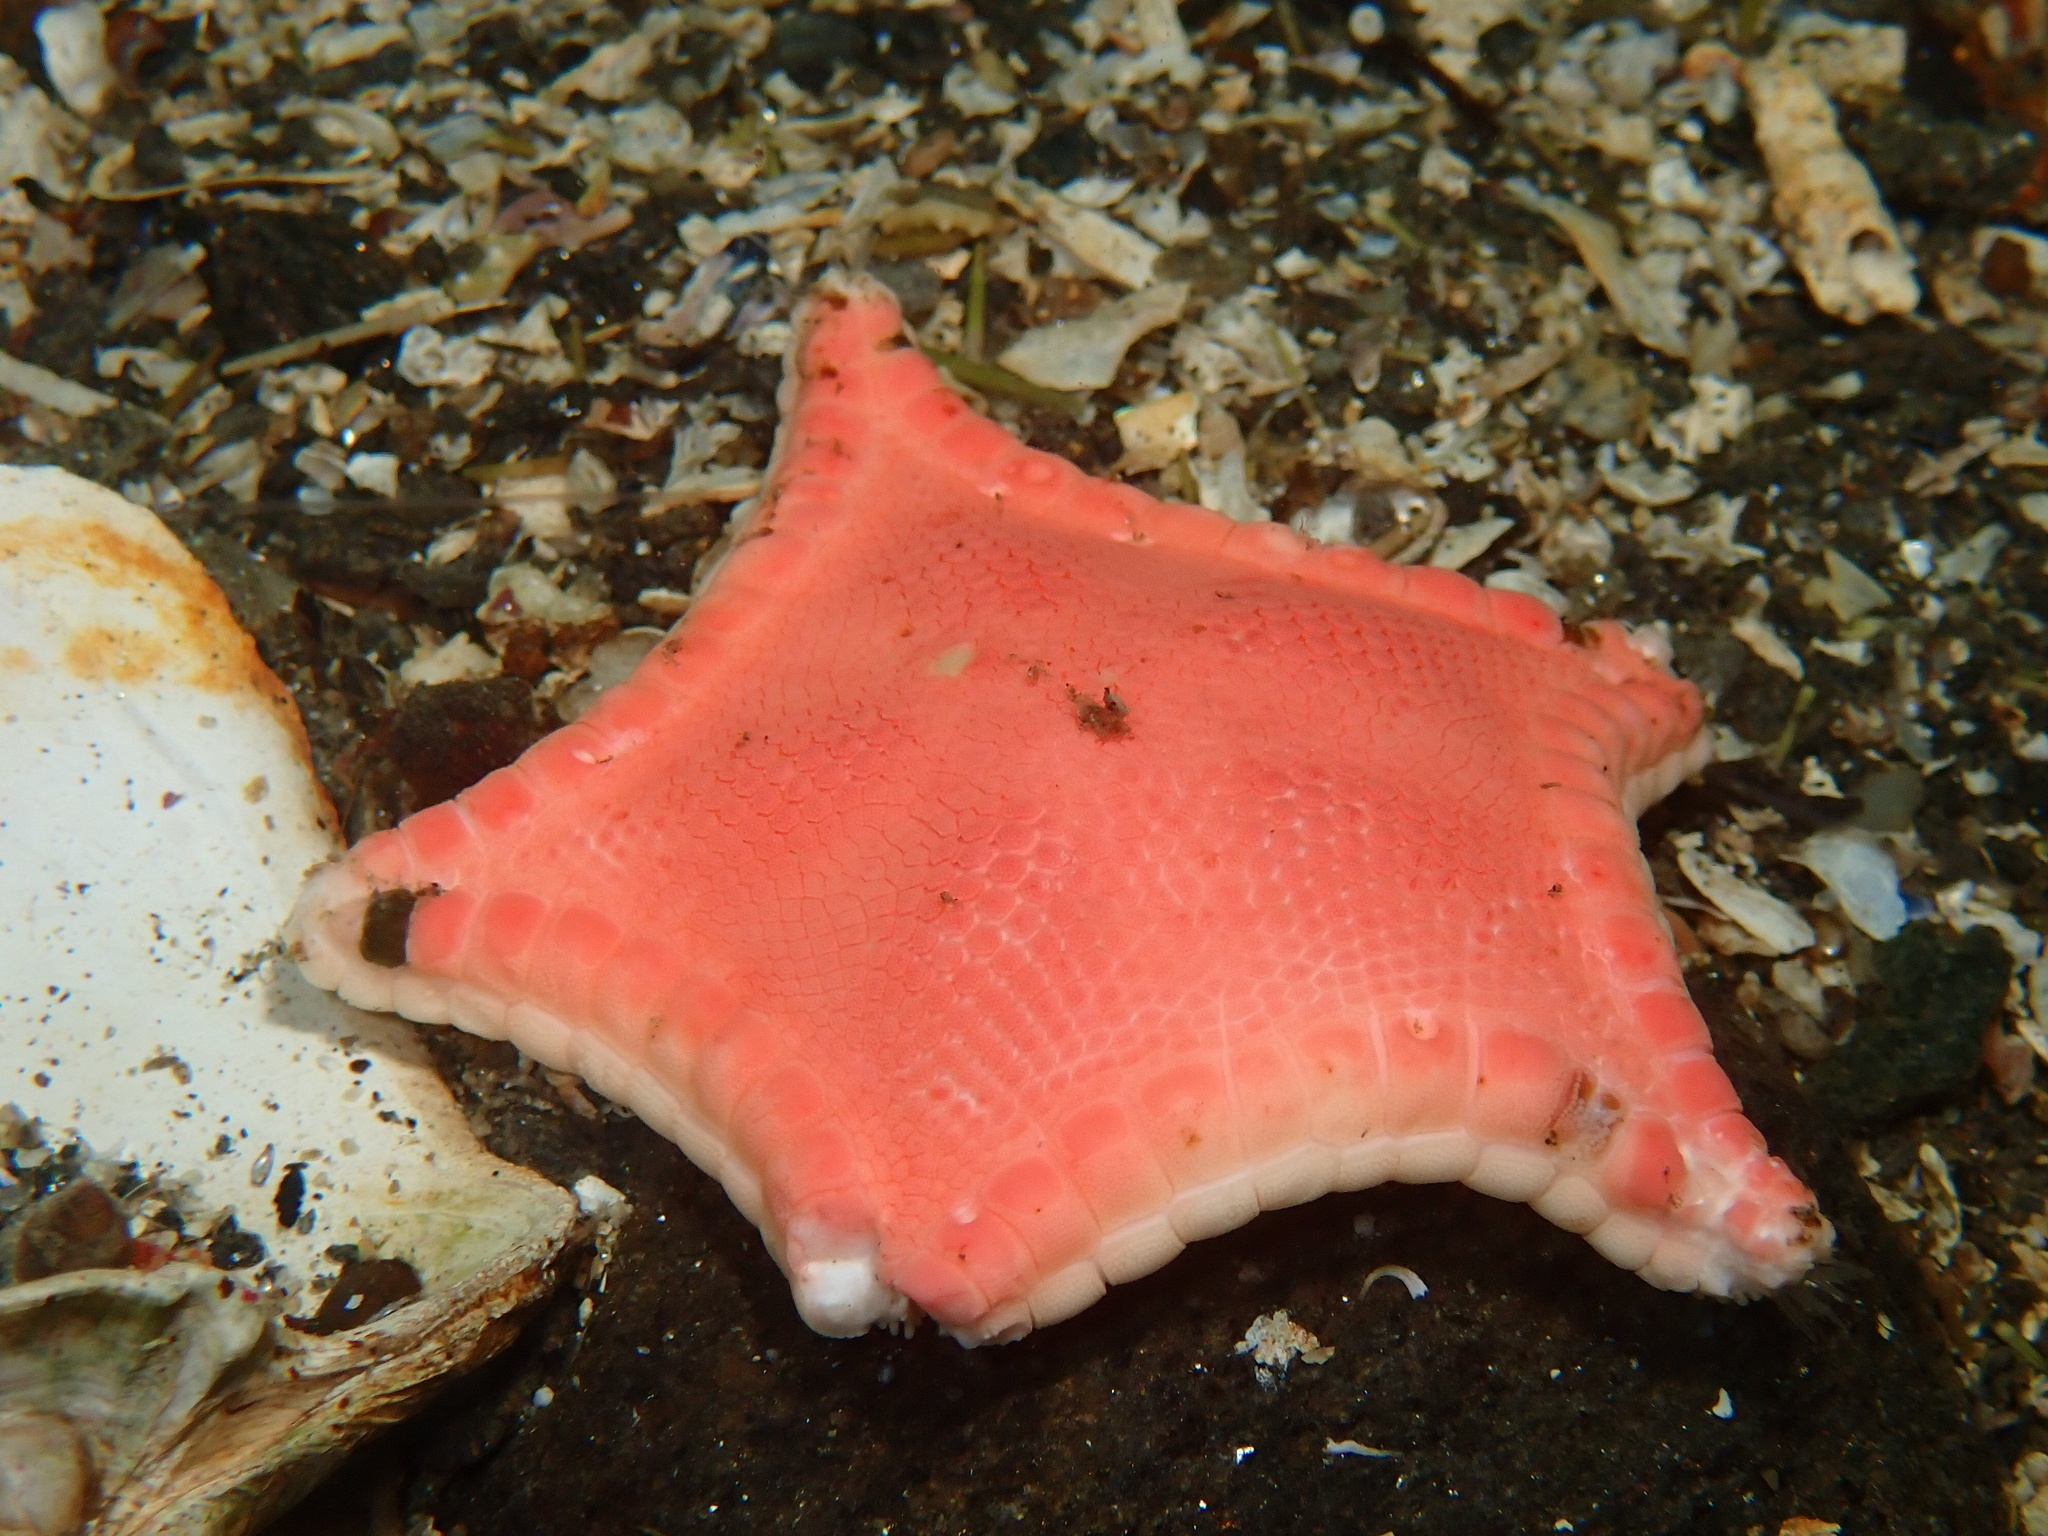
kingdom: Animalia
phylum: Echinodermata
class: Asteroidea
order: Valvatida
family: Goniasteridae
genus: Ceramaster
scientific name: Ceramaster granularis
